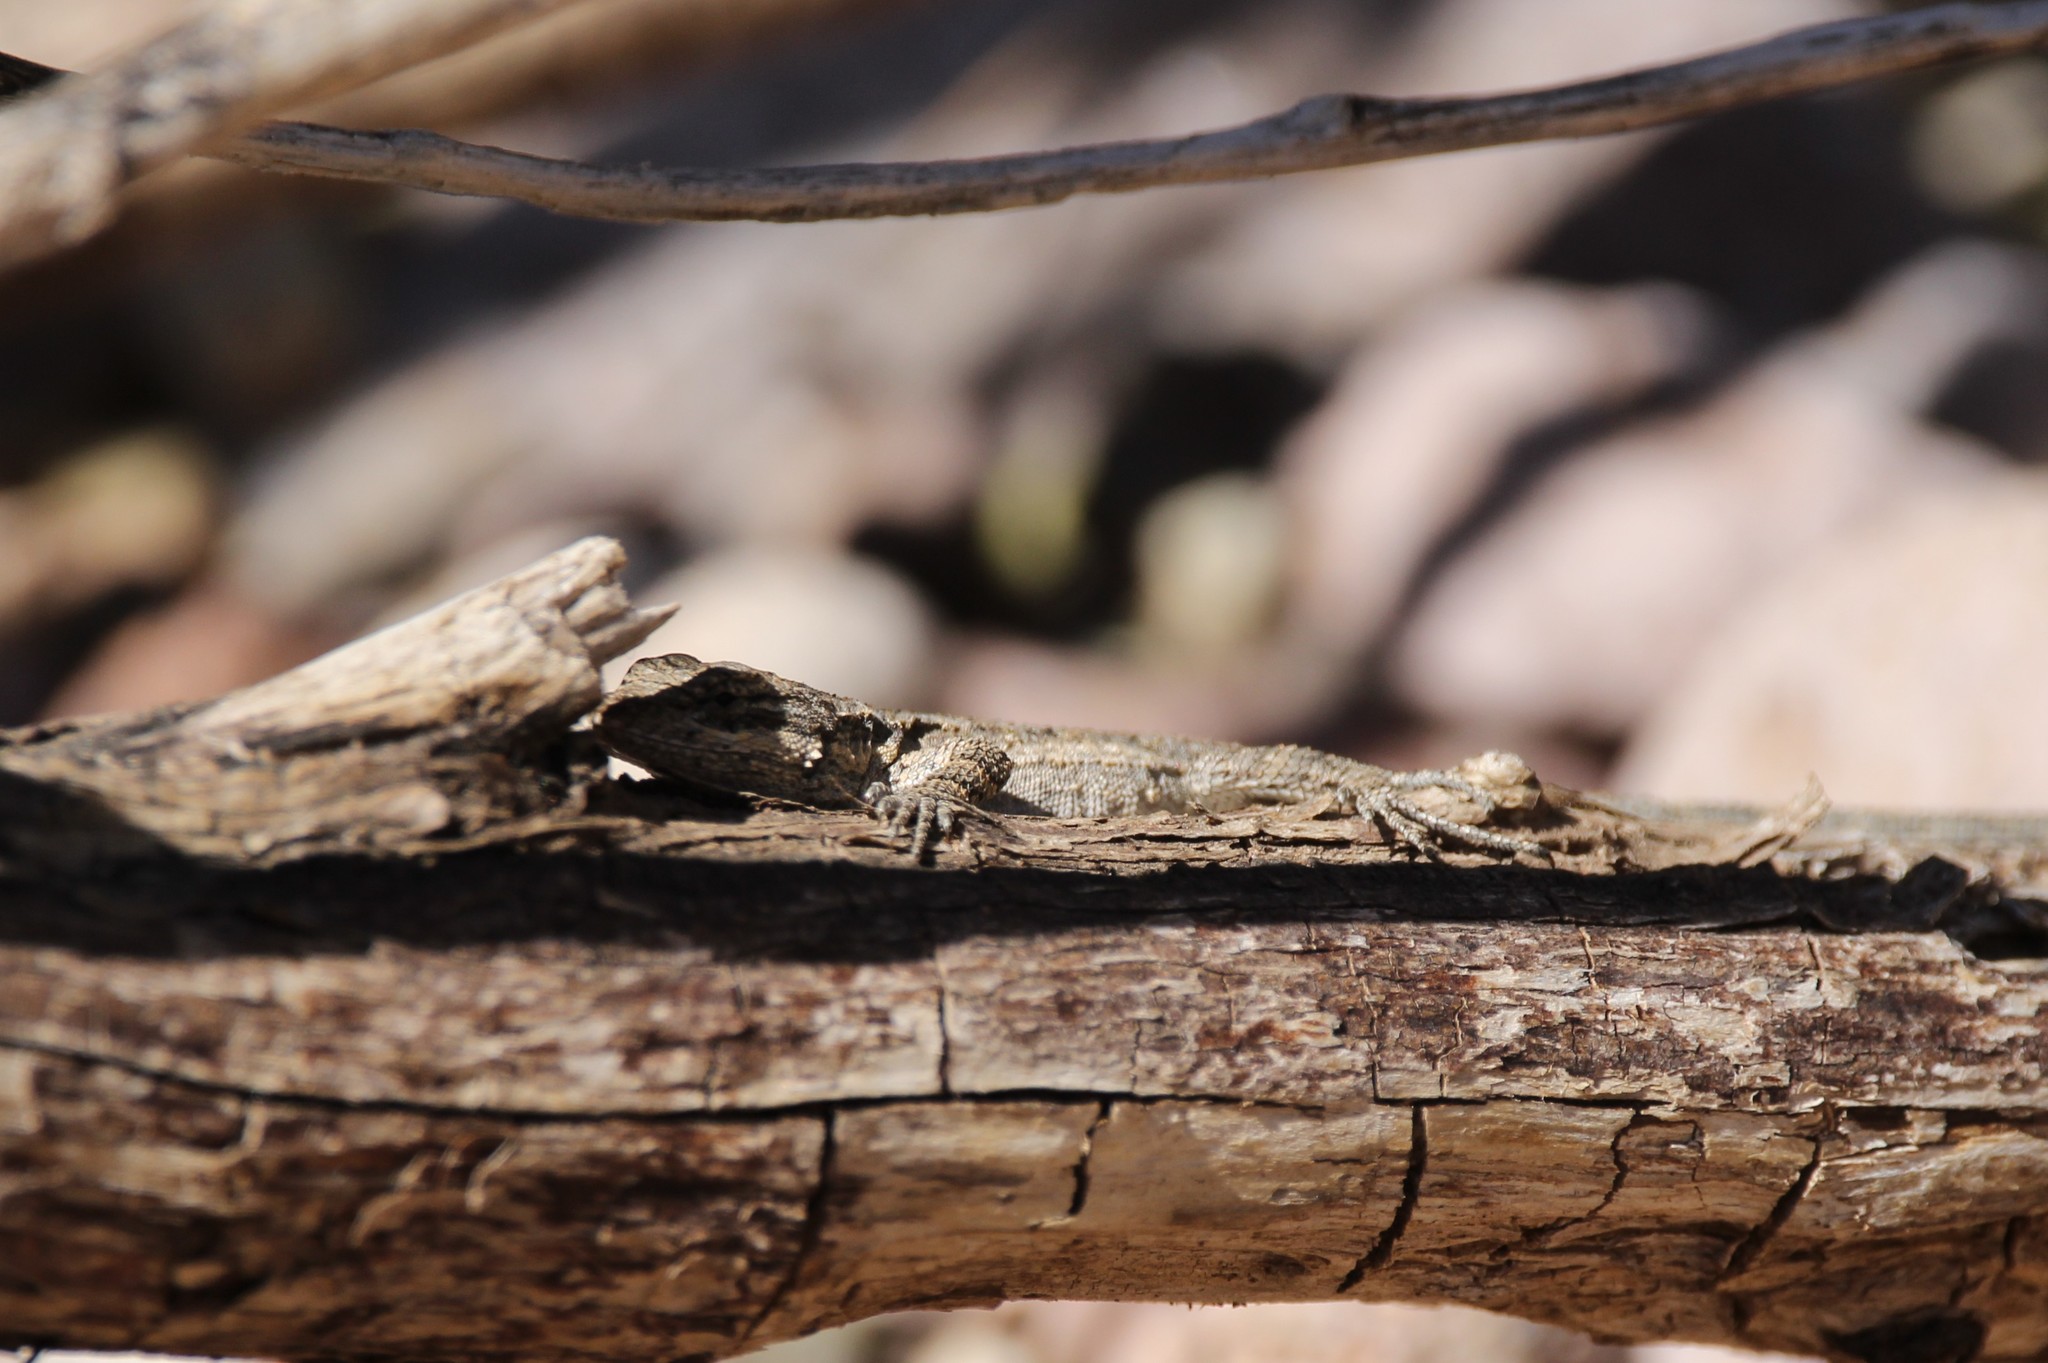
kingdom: Animalia
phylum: Chordata
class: Squamata
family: Phrynosomatidae
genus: Urosaurus
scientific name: Urosaurus ornatus
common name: Ornate tree lizard
